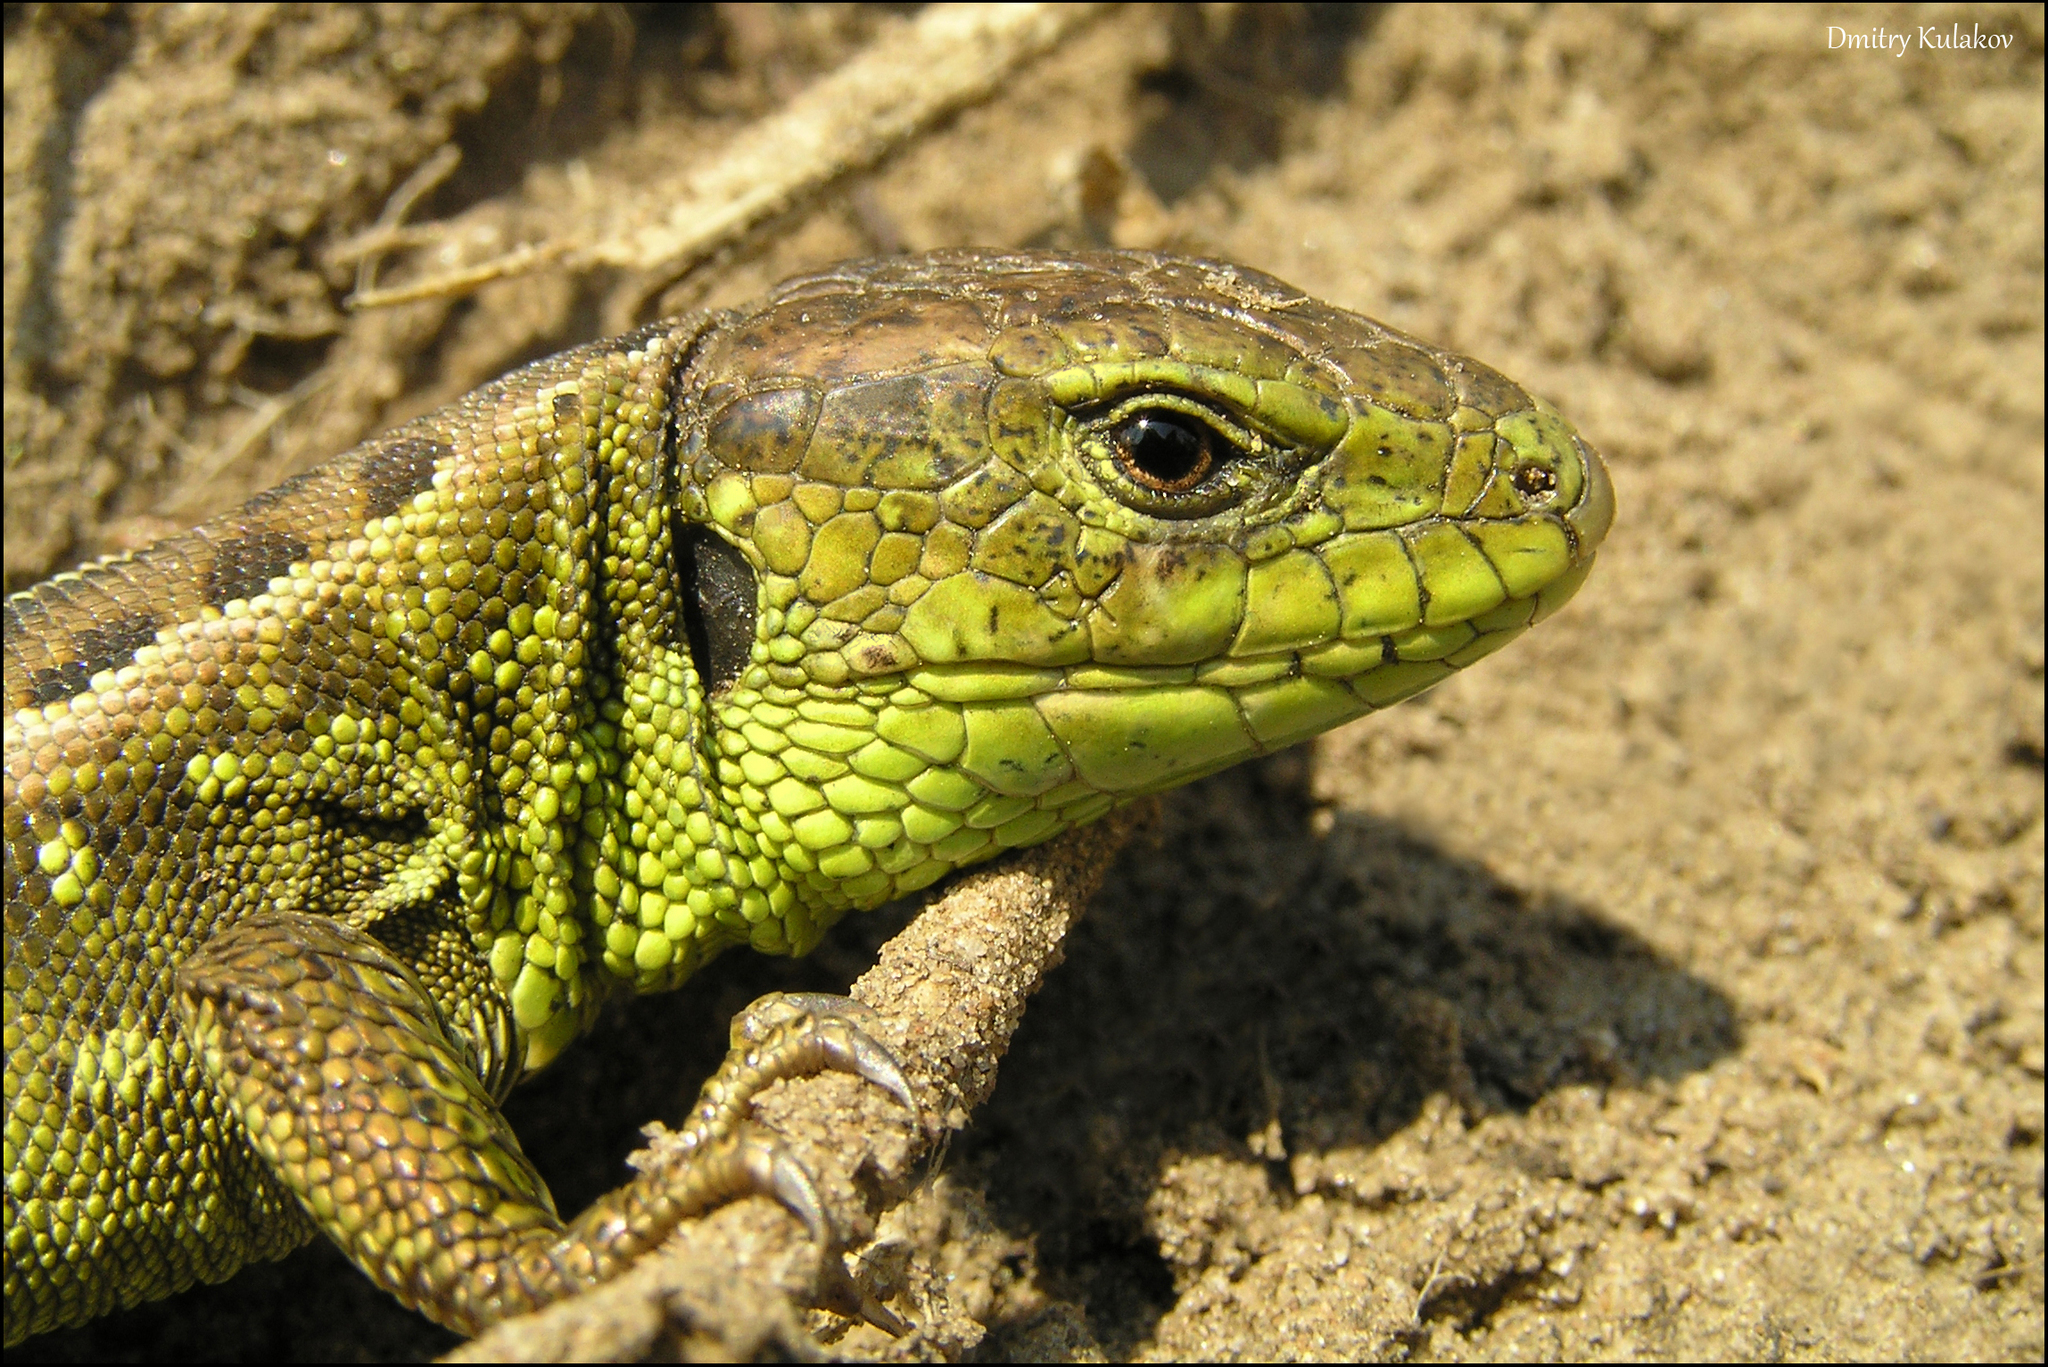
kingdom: Animalia
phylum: Chordata
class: Squamata
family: Lacertidae
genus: Lacerta
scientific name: Lacerta agilis
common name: Sand lizard
